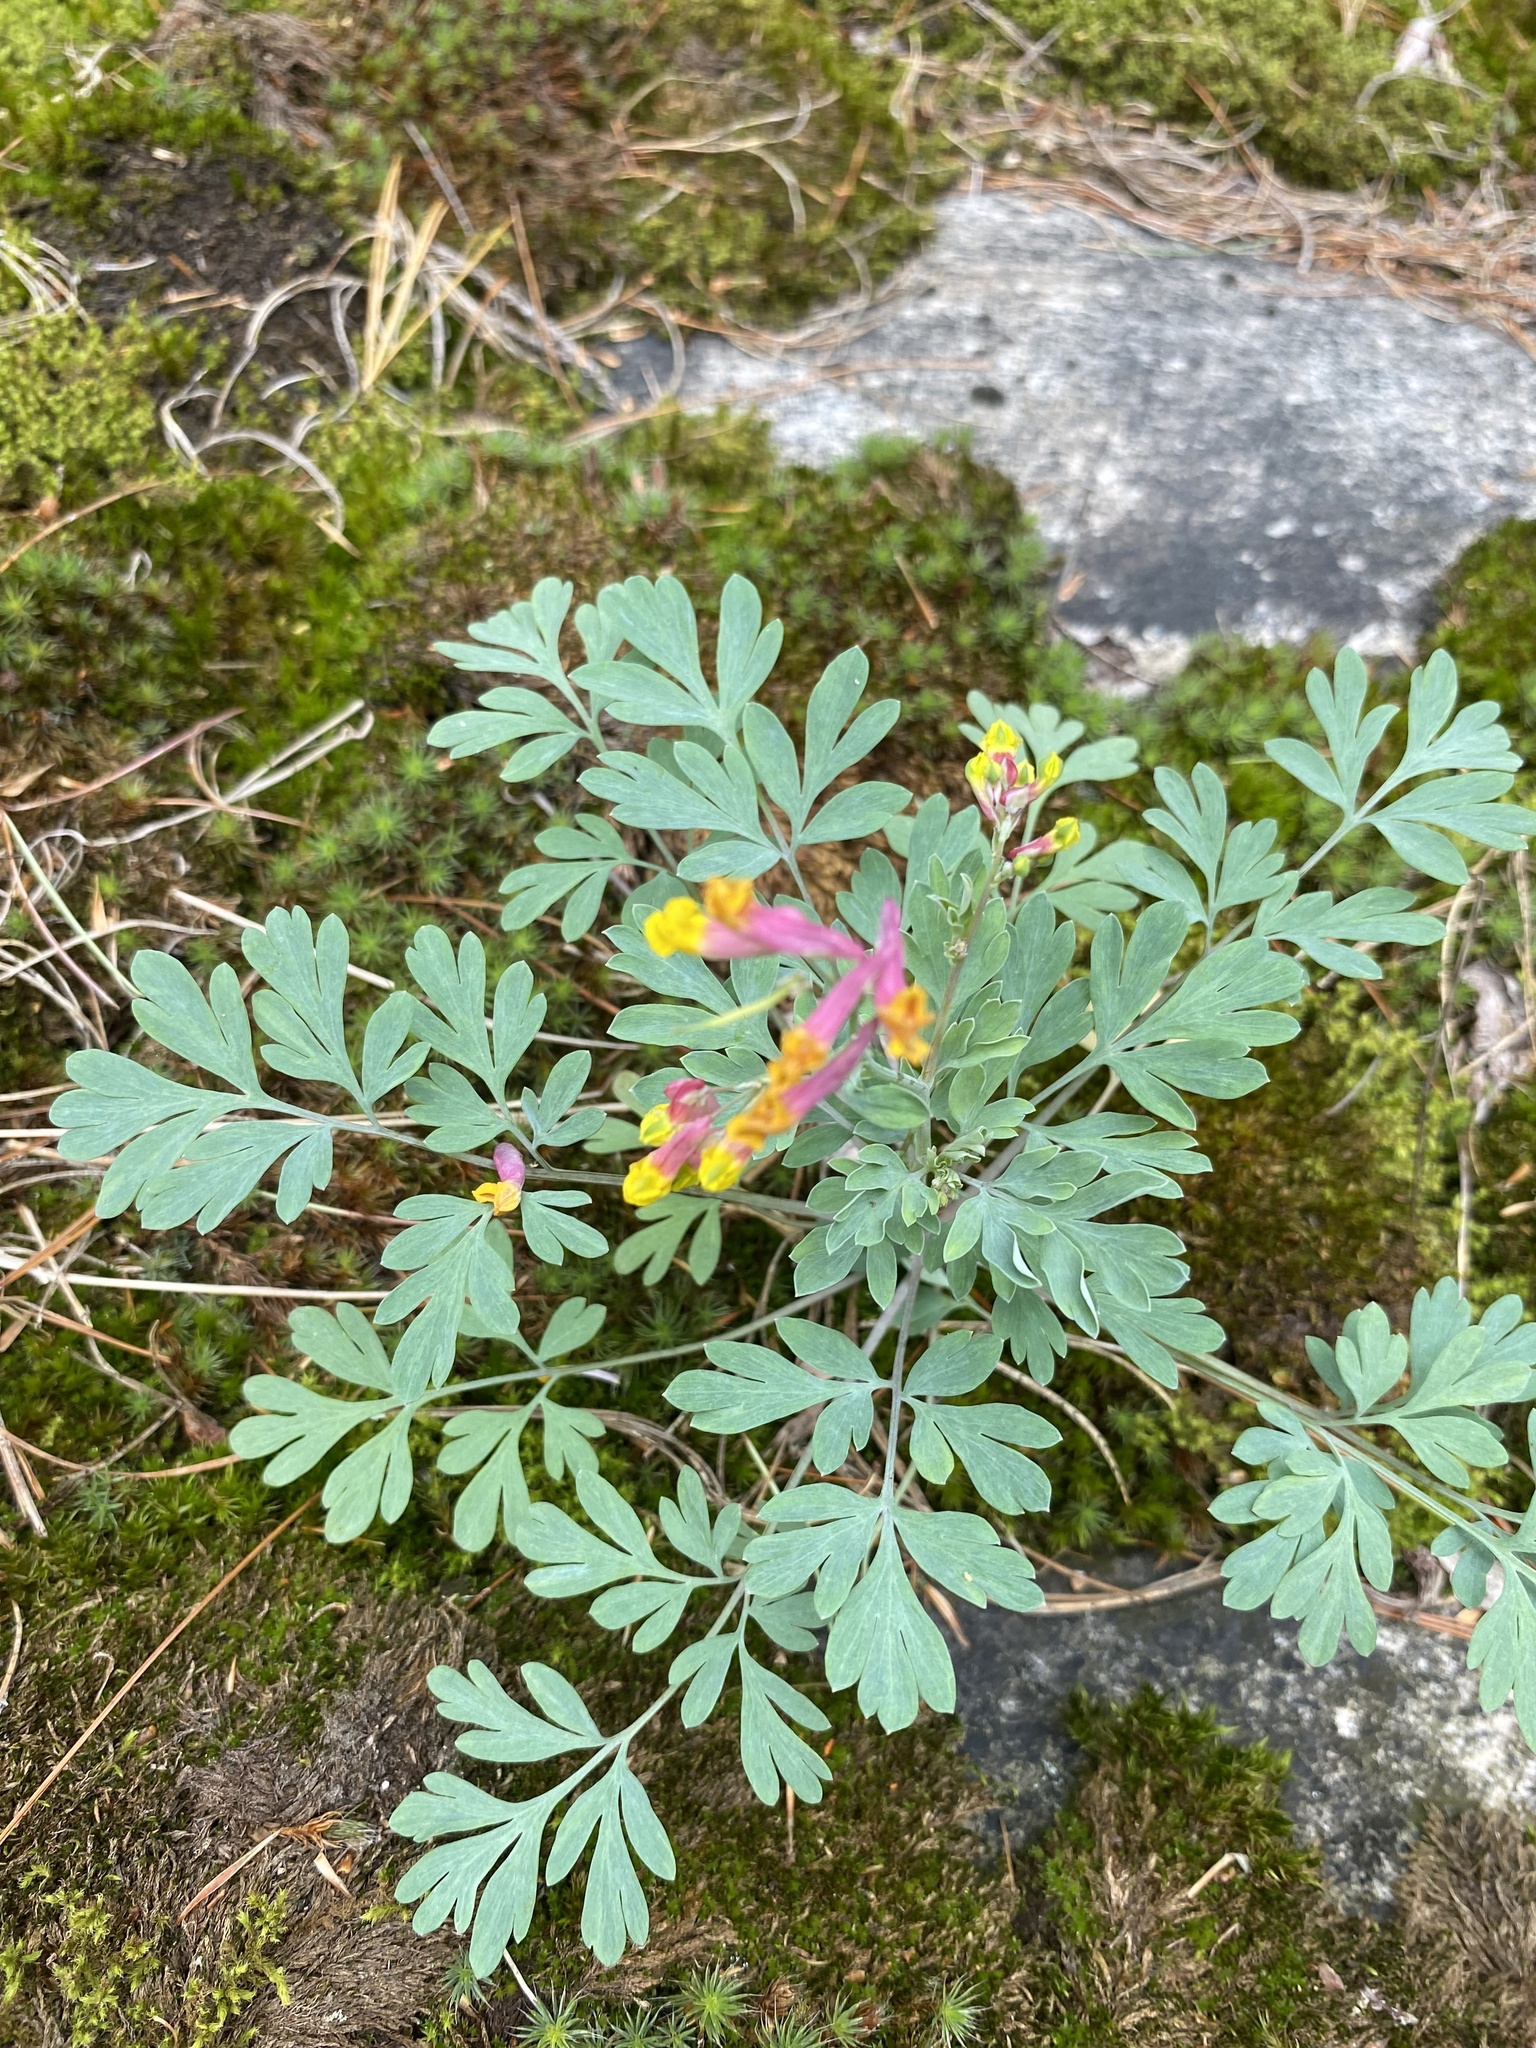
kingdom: Plantae
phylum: Tracheophyta
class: Magnoliopsida
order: Ranunculales
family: Papaveraceae
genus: Capnoides
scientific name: Capnoides sempervirens
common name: Rock harlequin
